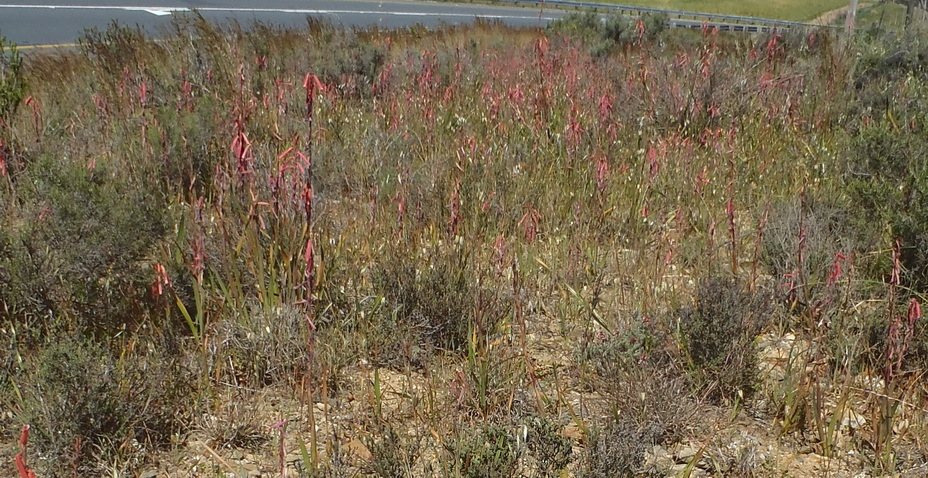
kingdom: Plantae
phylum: Tracheophyta
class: Liliopsida
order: Asparagales
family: Iridaceae
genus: Watsonia
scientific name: Watsonia aletroides
